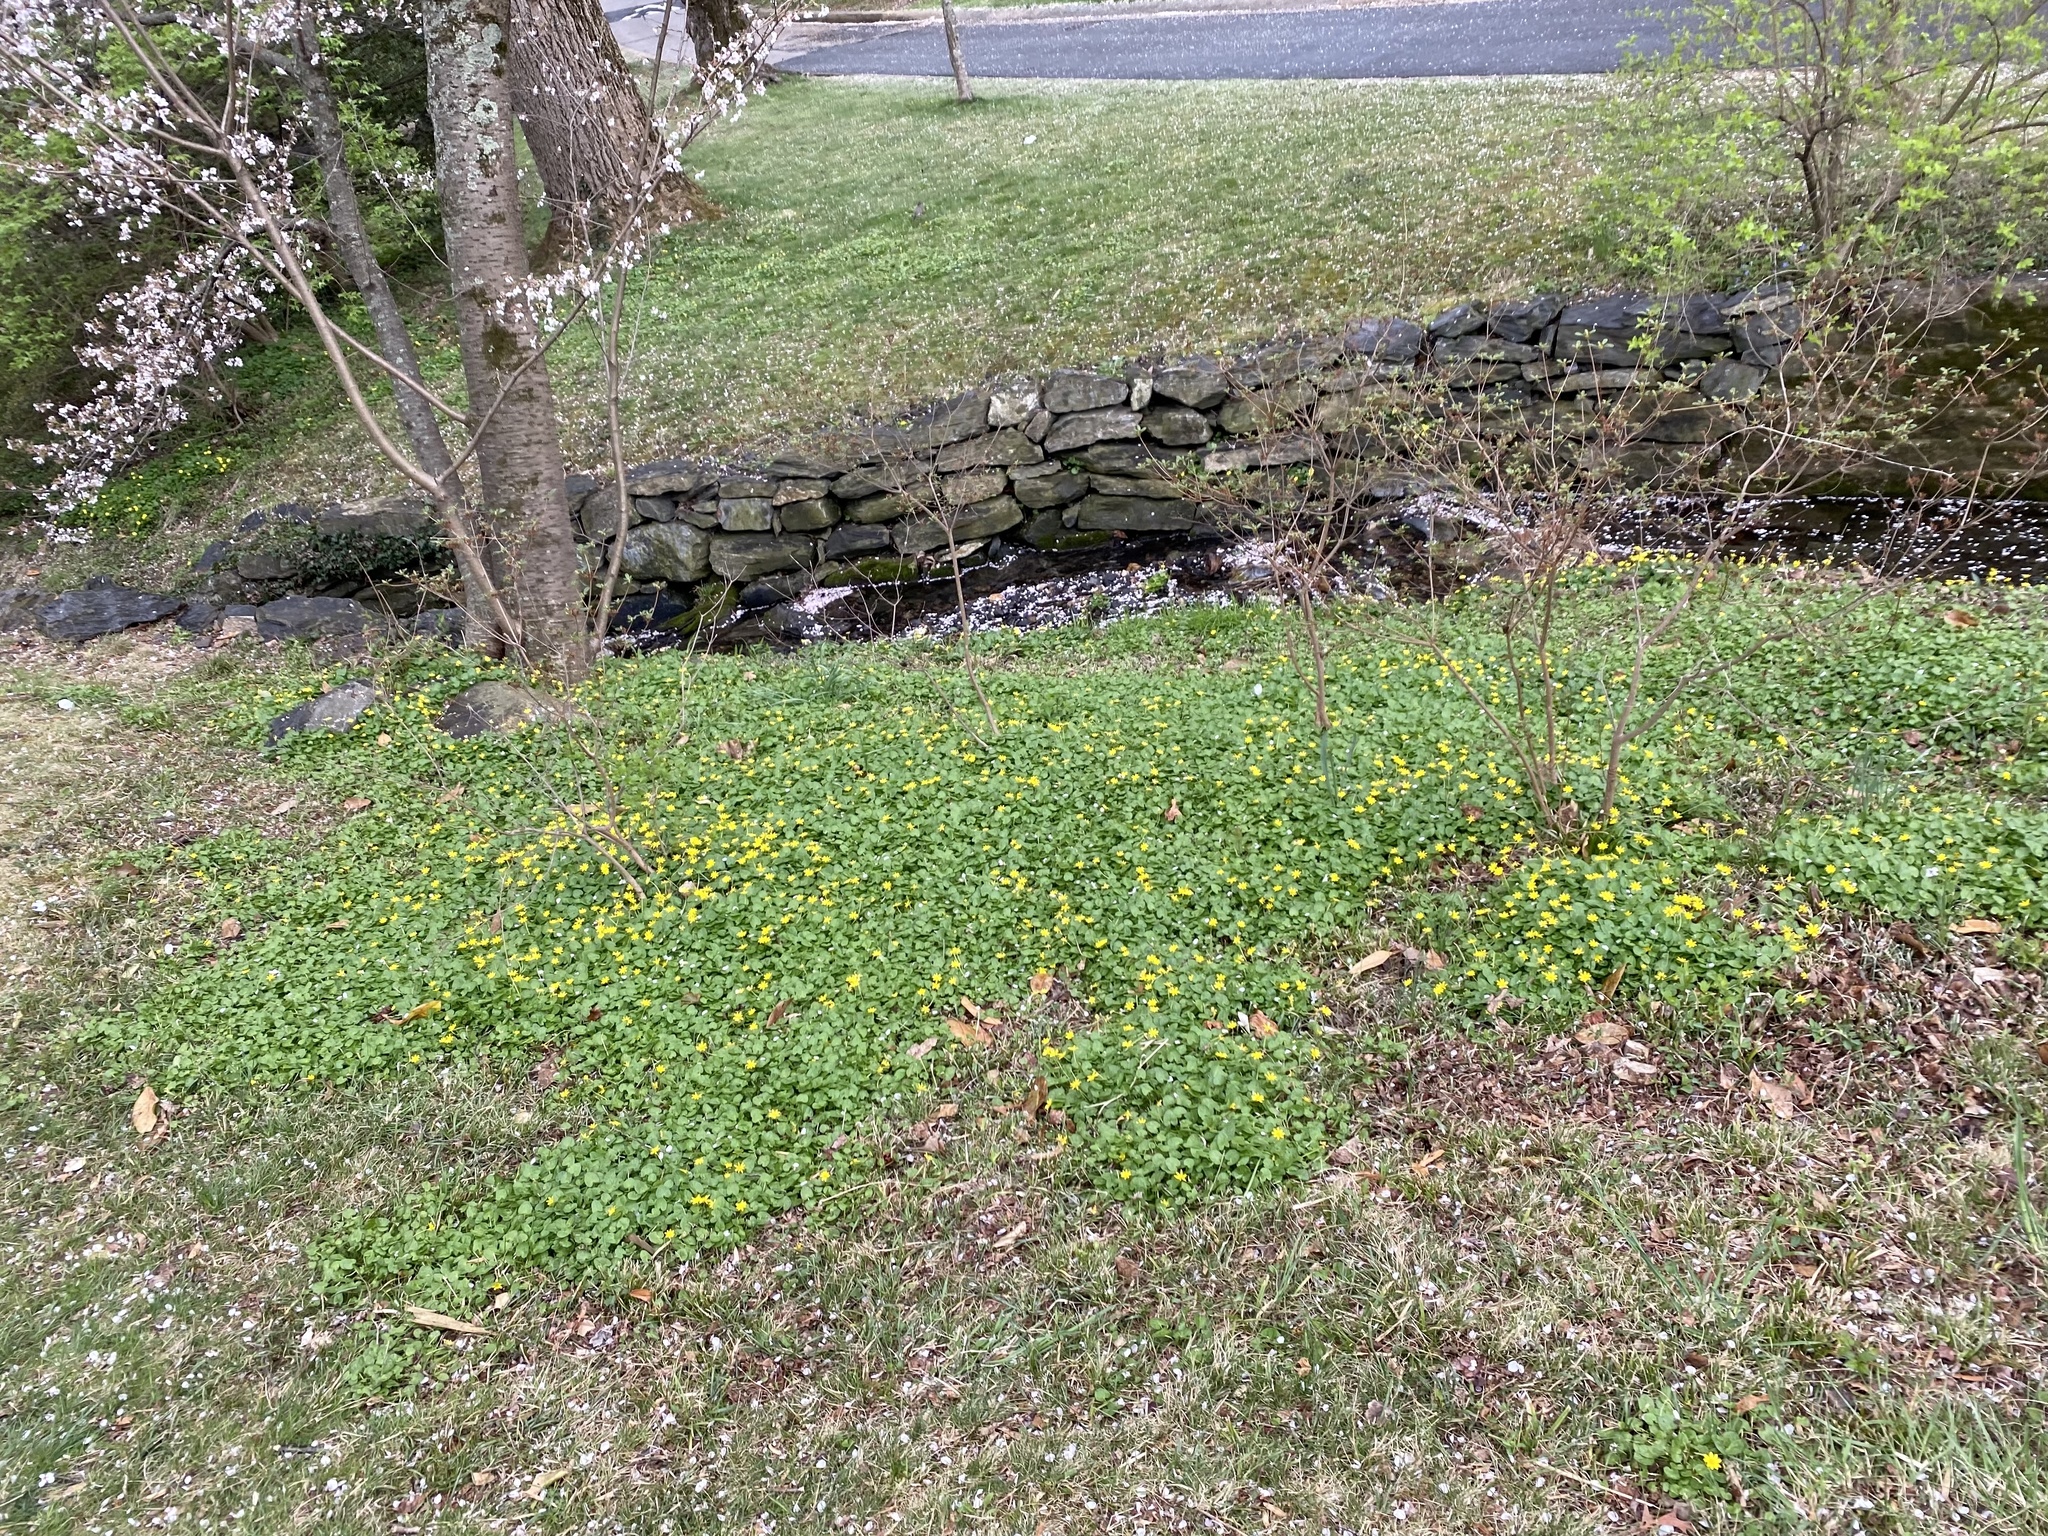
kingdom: Plantae
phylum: Tracheophyta
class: Magnoliopsida
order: Ranunculales
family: Ranunculaceae
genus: Ficaria
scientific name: Ficaria verna
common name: Lesser celandine
